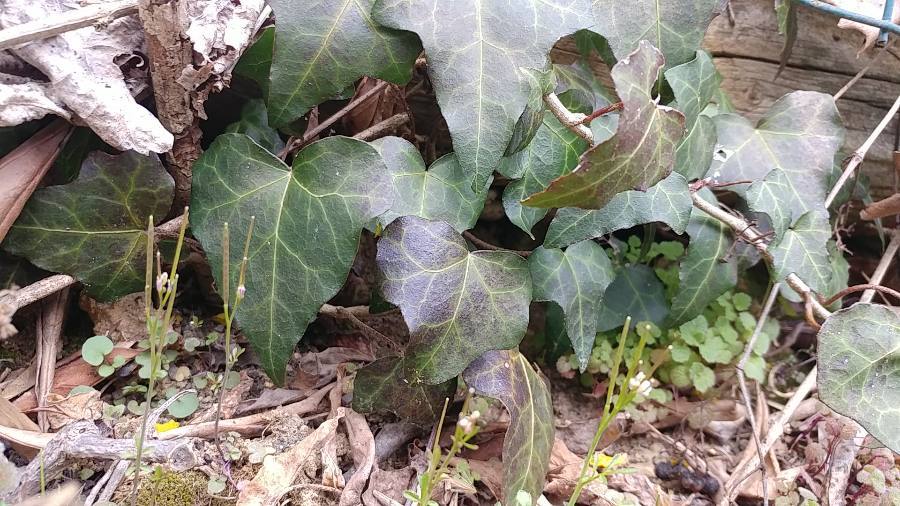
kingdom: Plantae
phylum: Tracheophyta
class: Magnoliopsida
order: Apiales
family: Araliaceae
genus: Hedera
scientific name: Hedera helix
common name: Ivy
